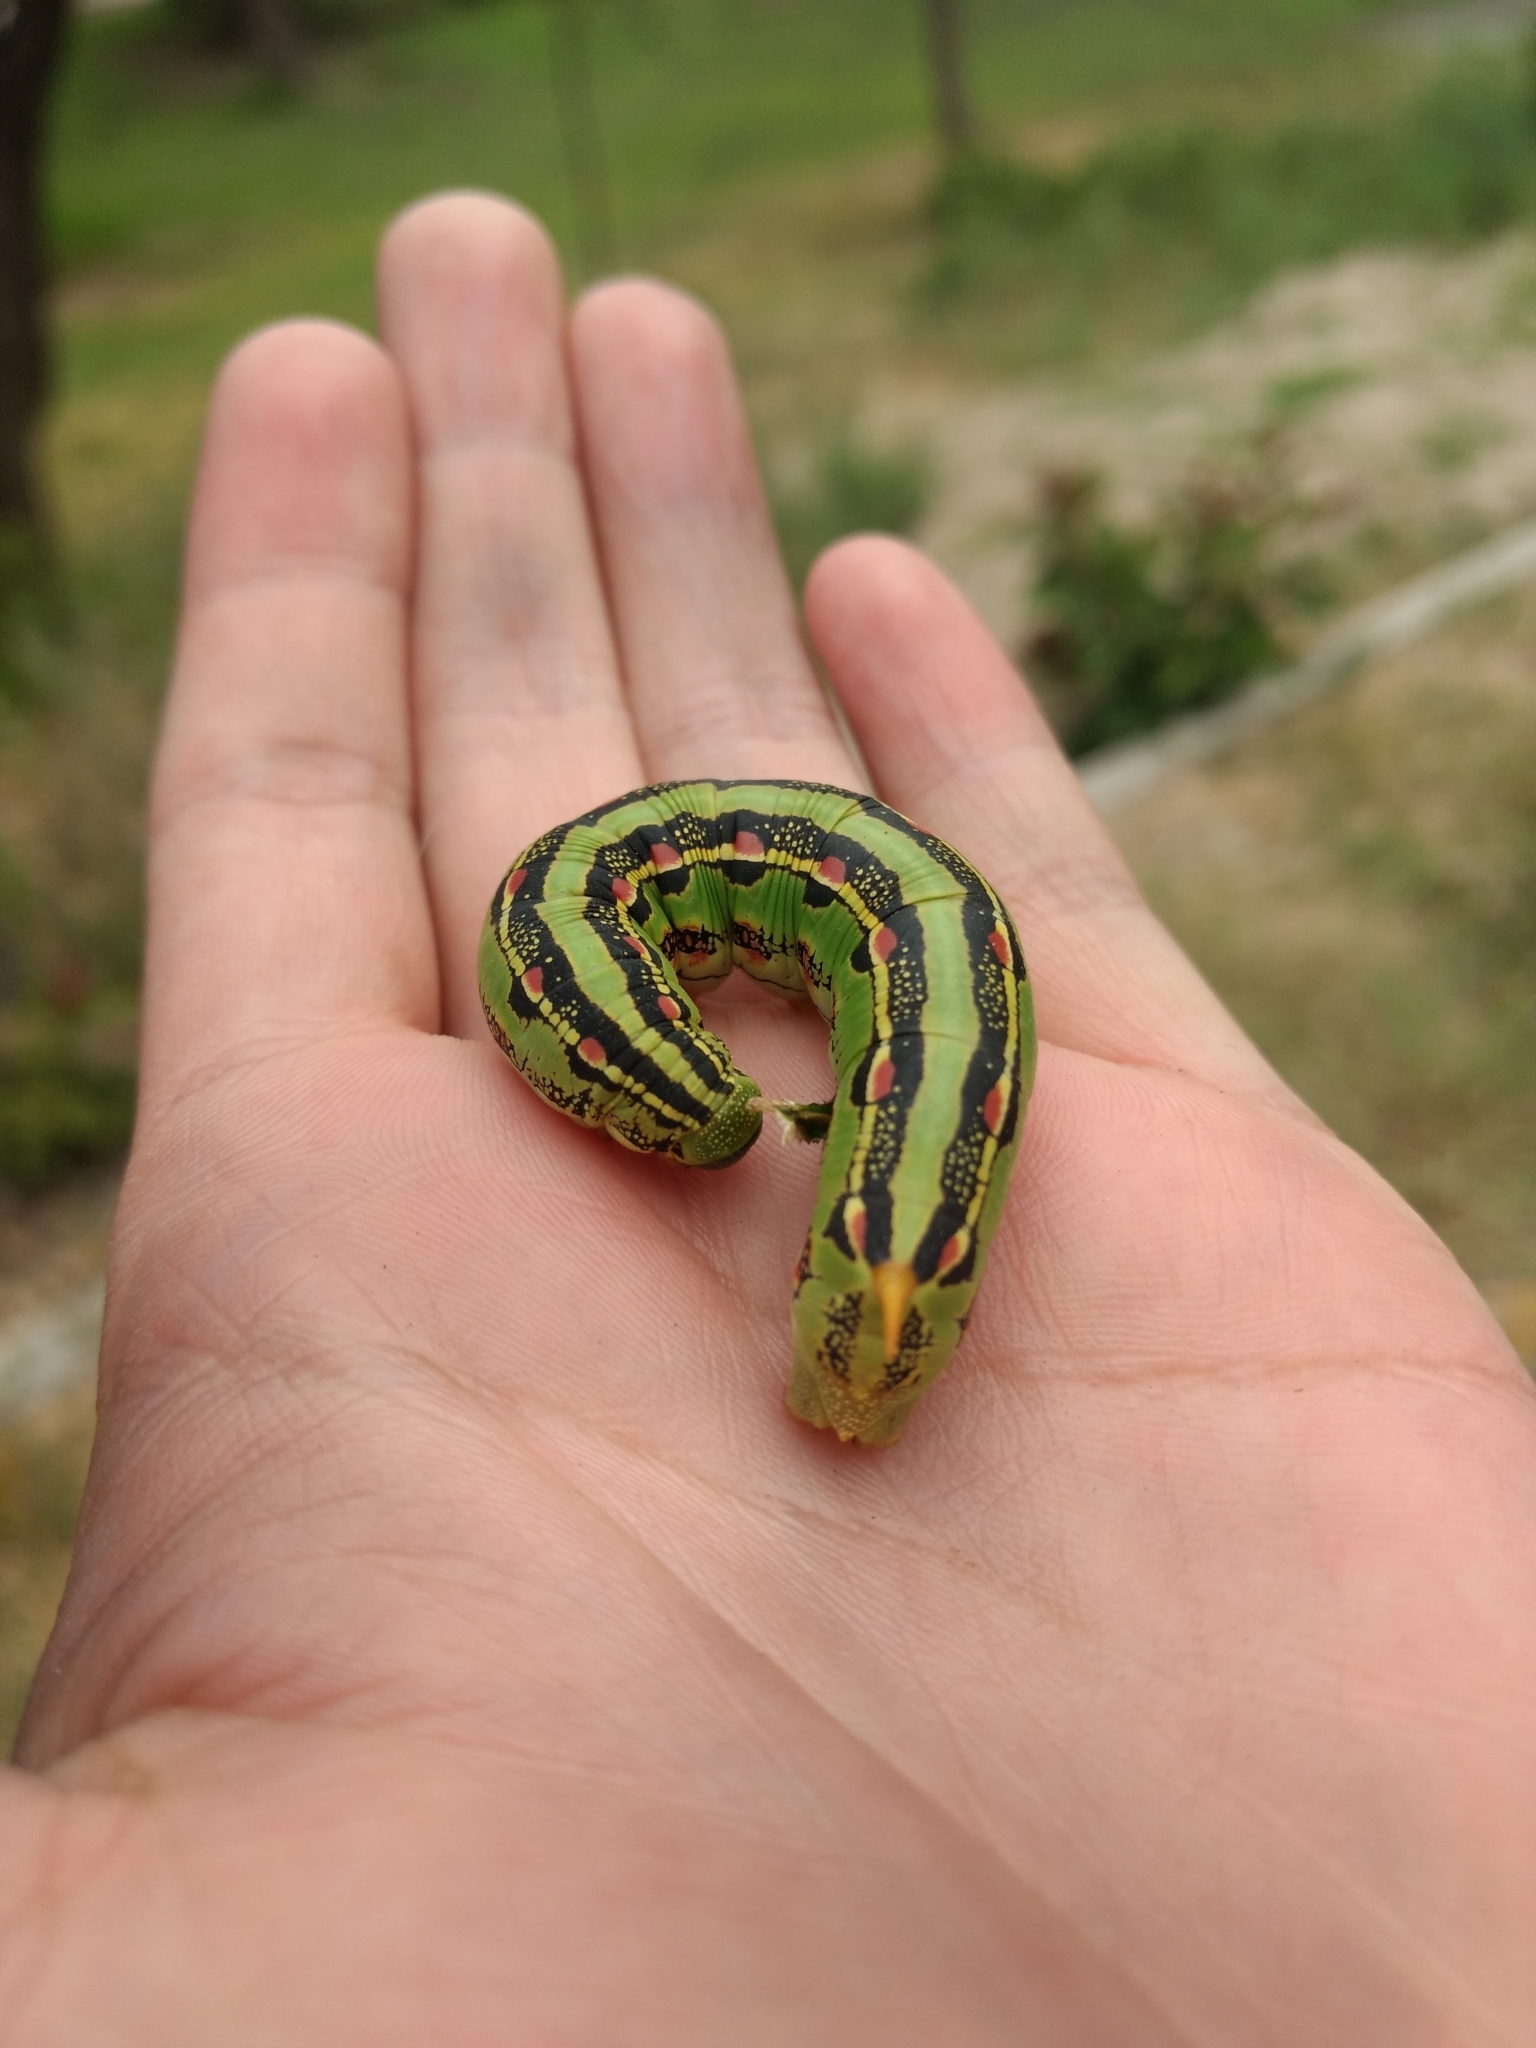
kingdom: Animalia
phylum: Arthropoda
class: Insecta
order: Lepidoptera
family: Sphingidae
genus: Hyles
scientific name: Hyles lineata
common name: White-lined sphinx
